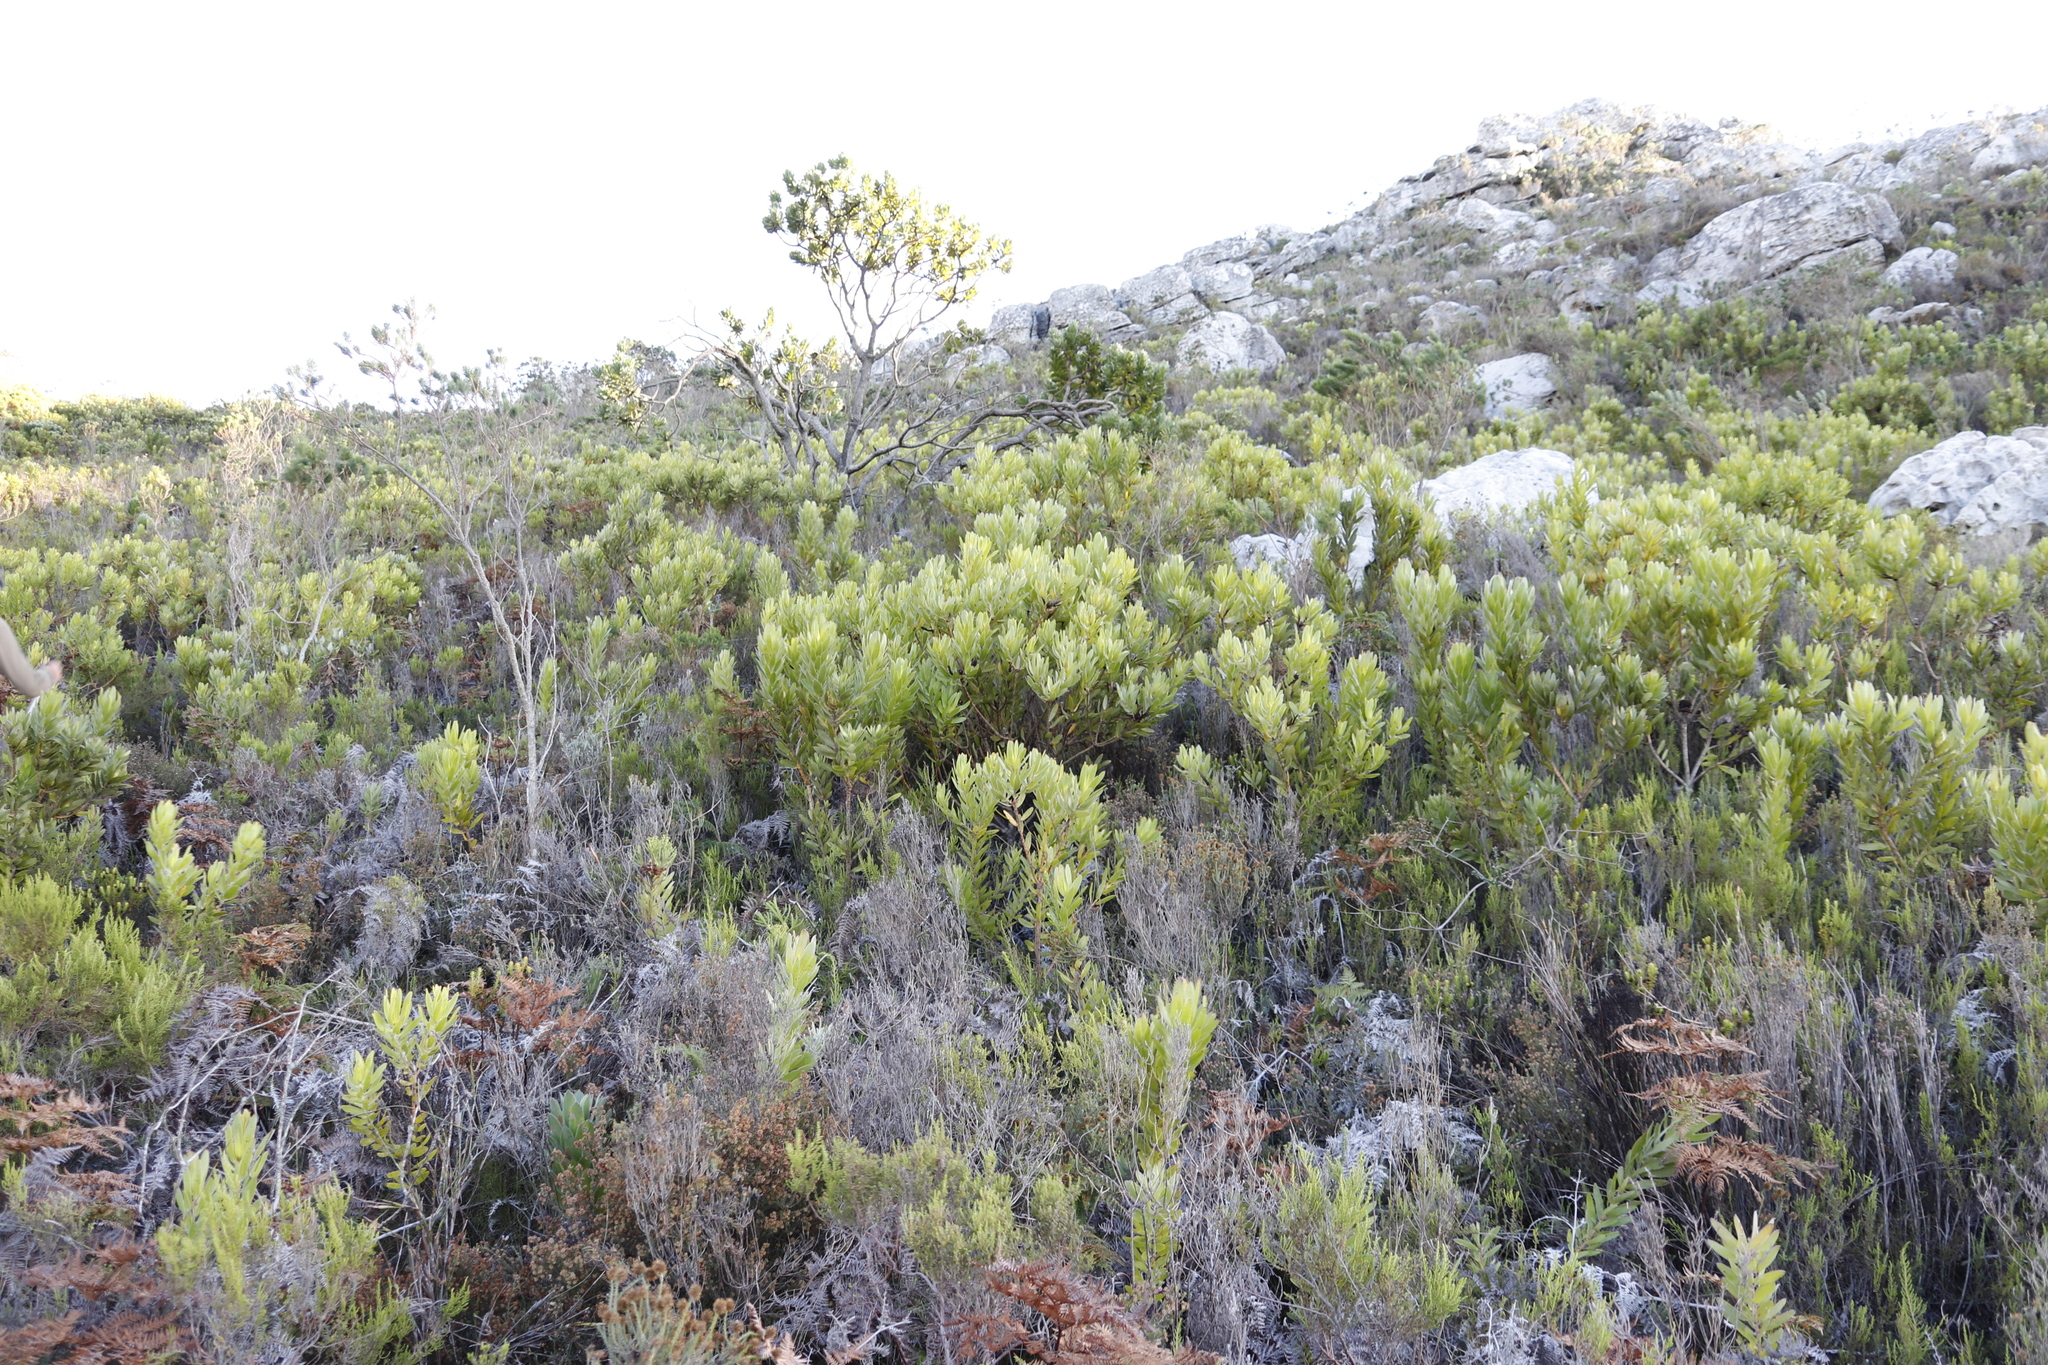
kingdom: Plantae
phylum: Tracheophyta
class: Magnoliopsida
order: Proteales
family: Proteaceae
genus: Leucadendron
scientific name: Leucadendron laureolum
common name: Golden sunshinebush
